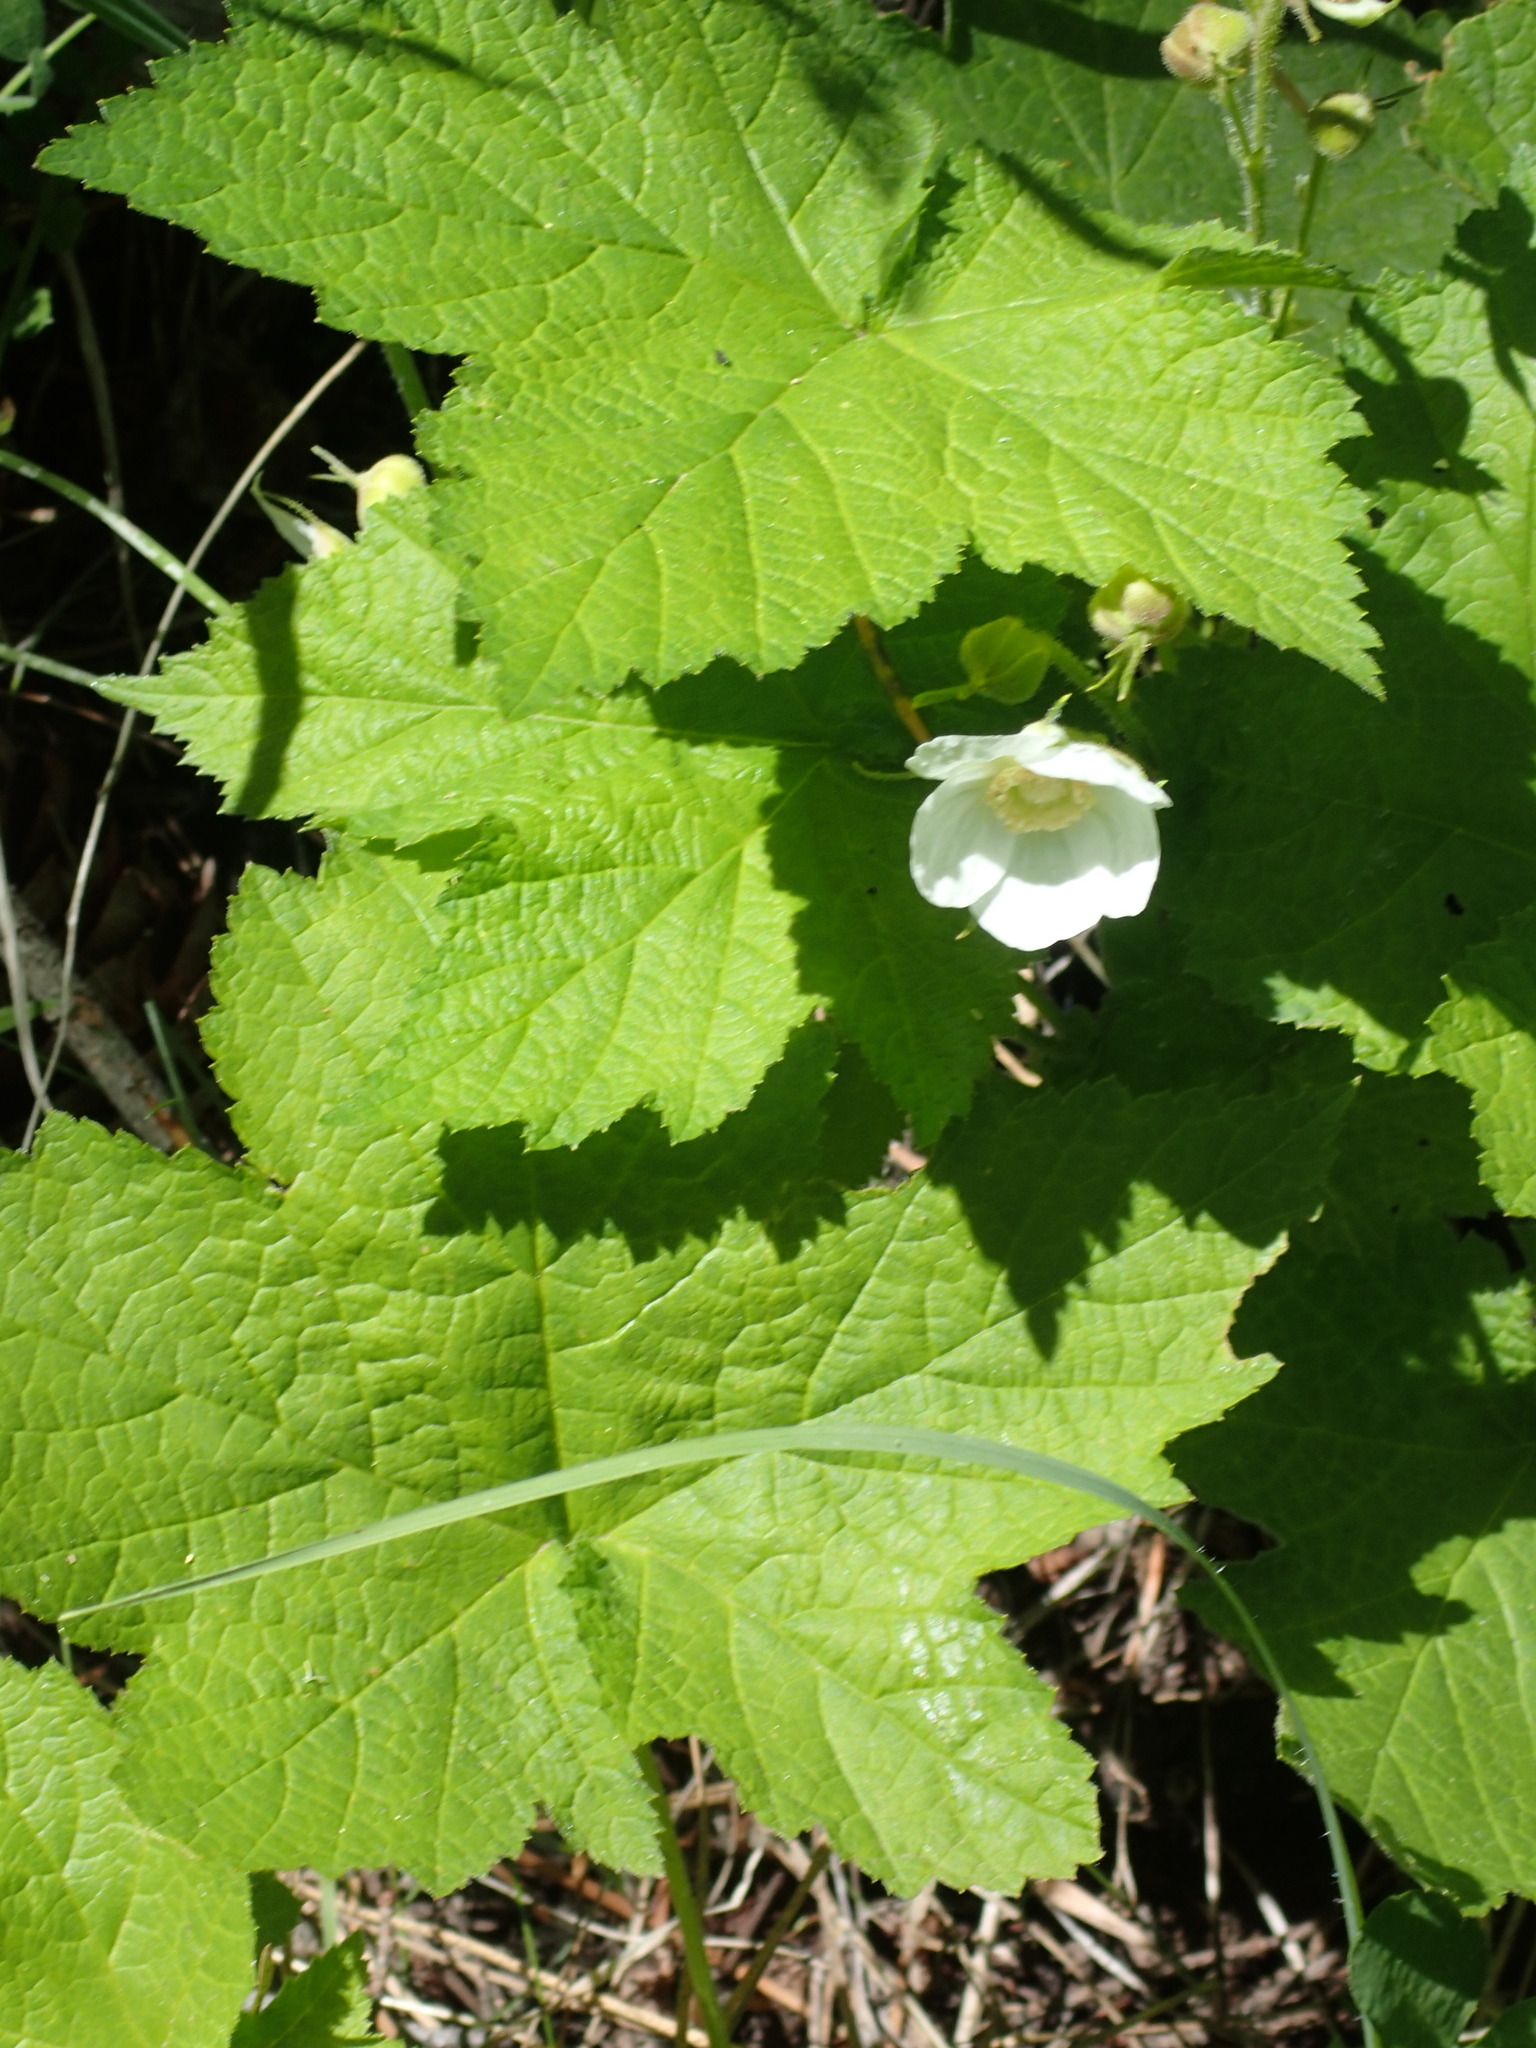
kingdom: Plantae
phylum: Tracheophyta
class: Magnoliopsida
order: Rosales
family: Rosaceae
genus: Rubus
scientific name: Rubus parviflorus
